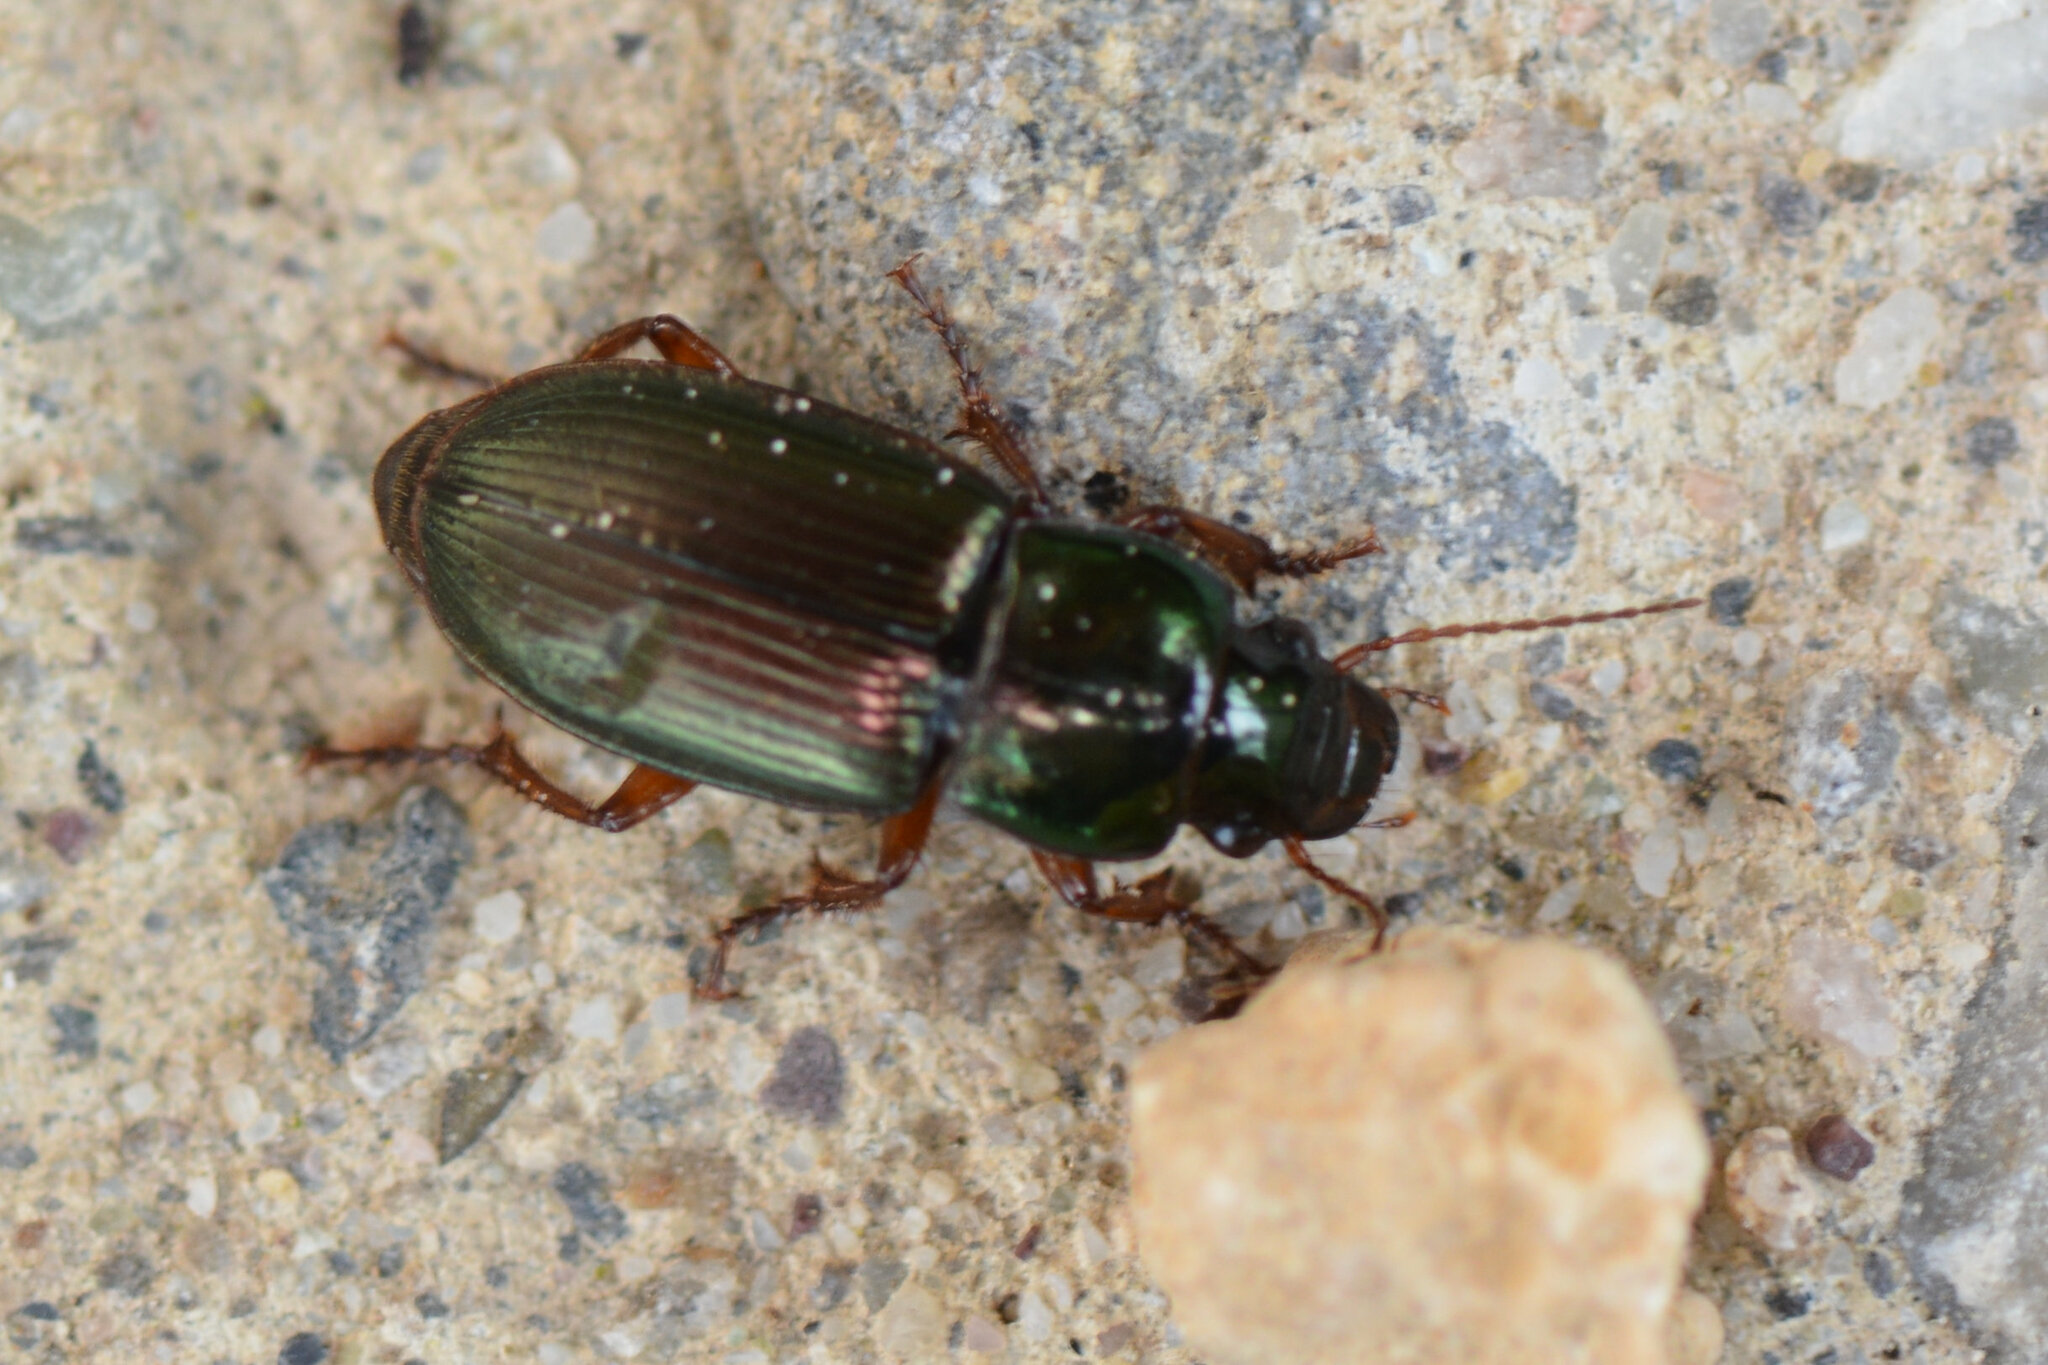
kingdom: Animalia
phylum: Arthropoda
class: Insecta
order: Coleoptera
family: Carabidae
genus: Harpalus
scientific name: Harpalus affinis
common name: Polychrome harp ground beetle
